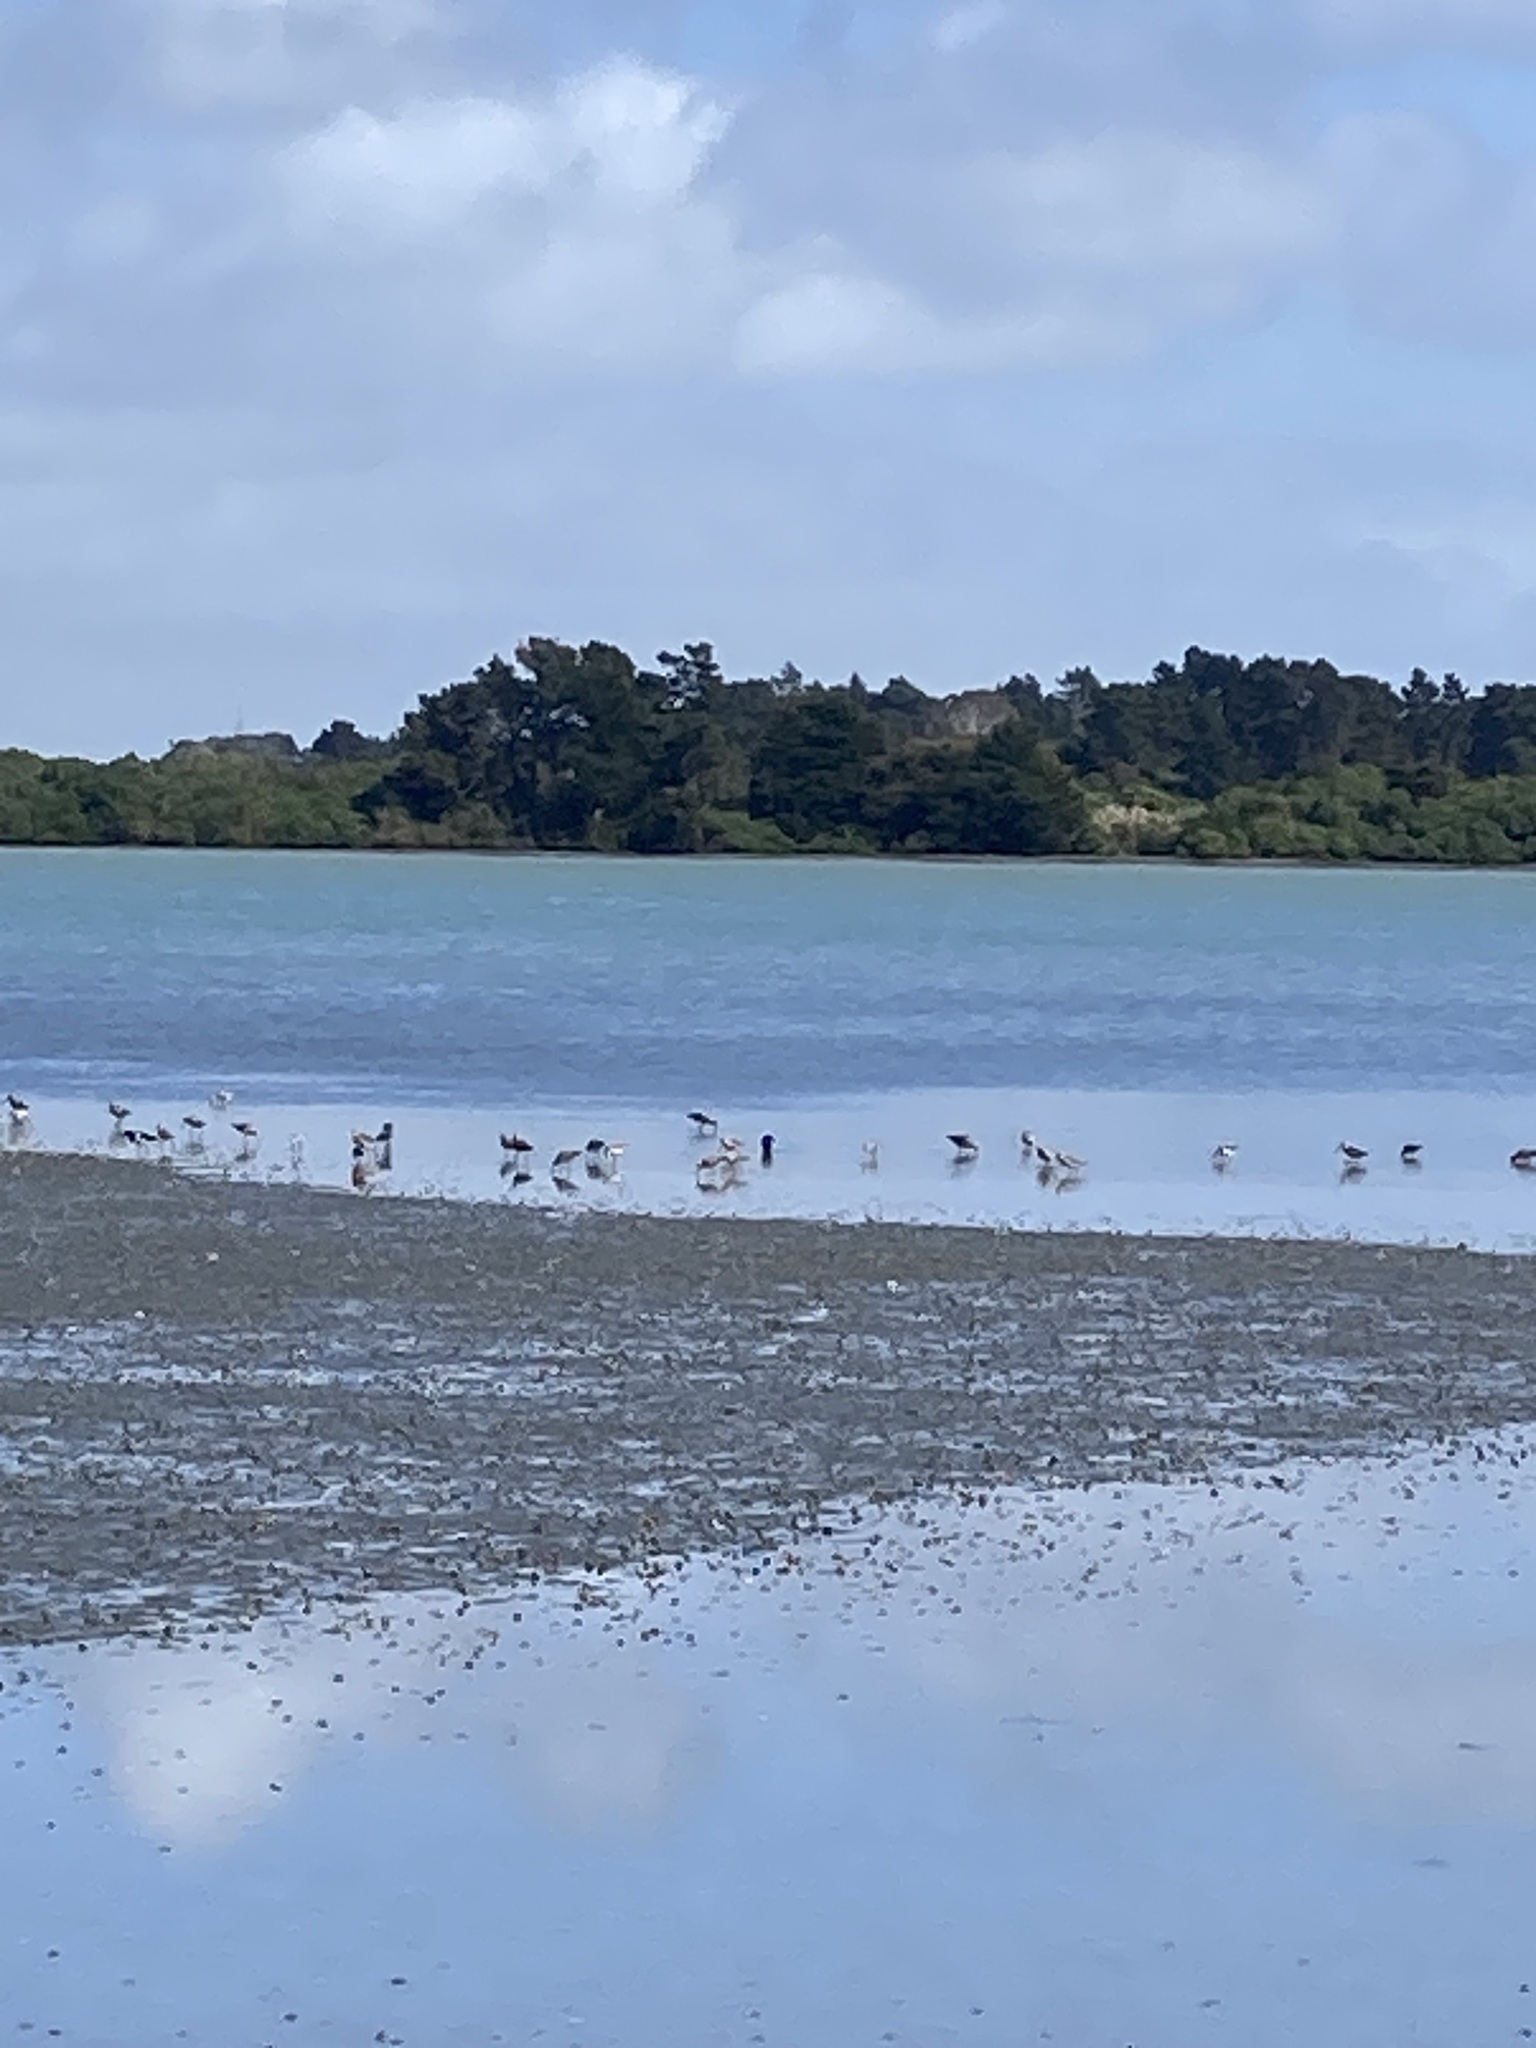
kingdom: Animalia
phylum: Chordata
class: Aves
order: Charadriiformes
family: Scolopacidae
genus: Limosa
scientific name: Limosa lapponica
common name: Bar-tailed godwit
